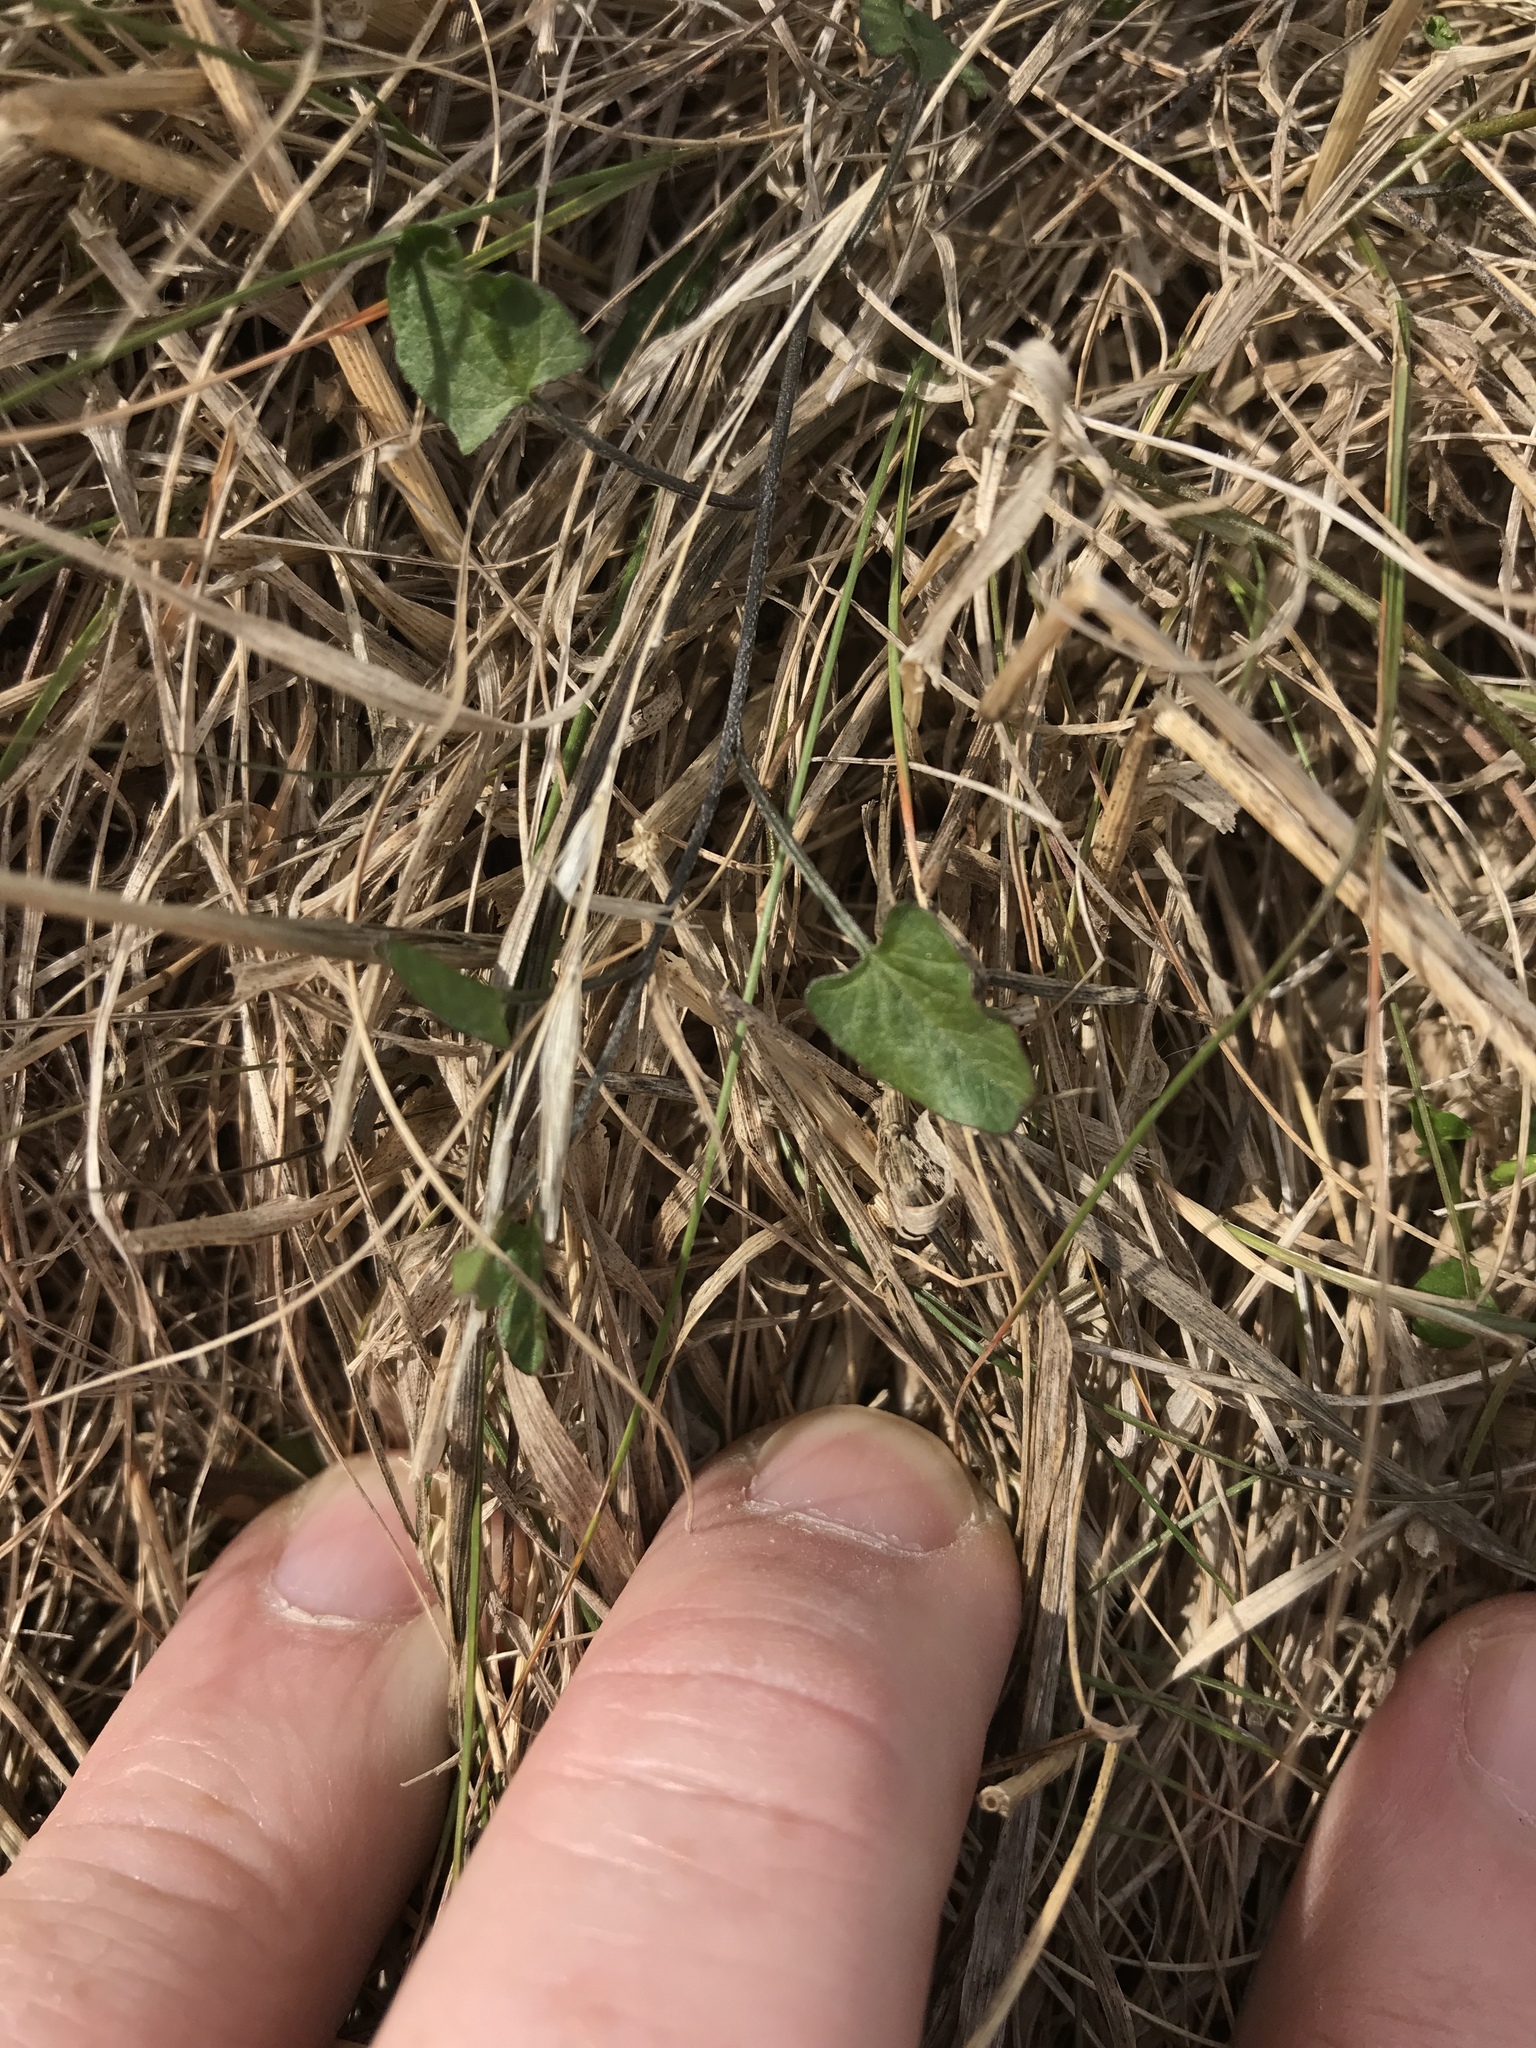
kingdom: Plantae
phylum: Tracheophyta
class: Magnoliopsida
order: Solanales
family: Convolvulaceae
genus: Convolvulus
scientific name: Convolvulus waitaha
